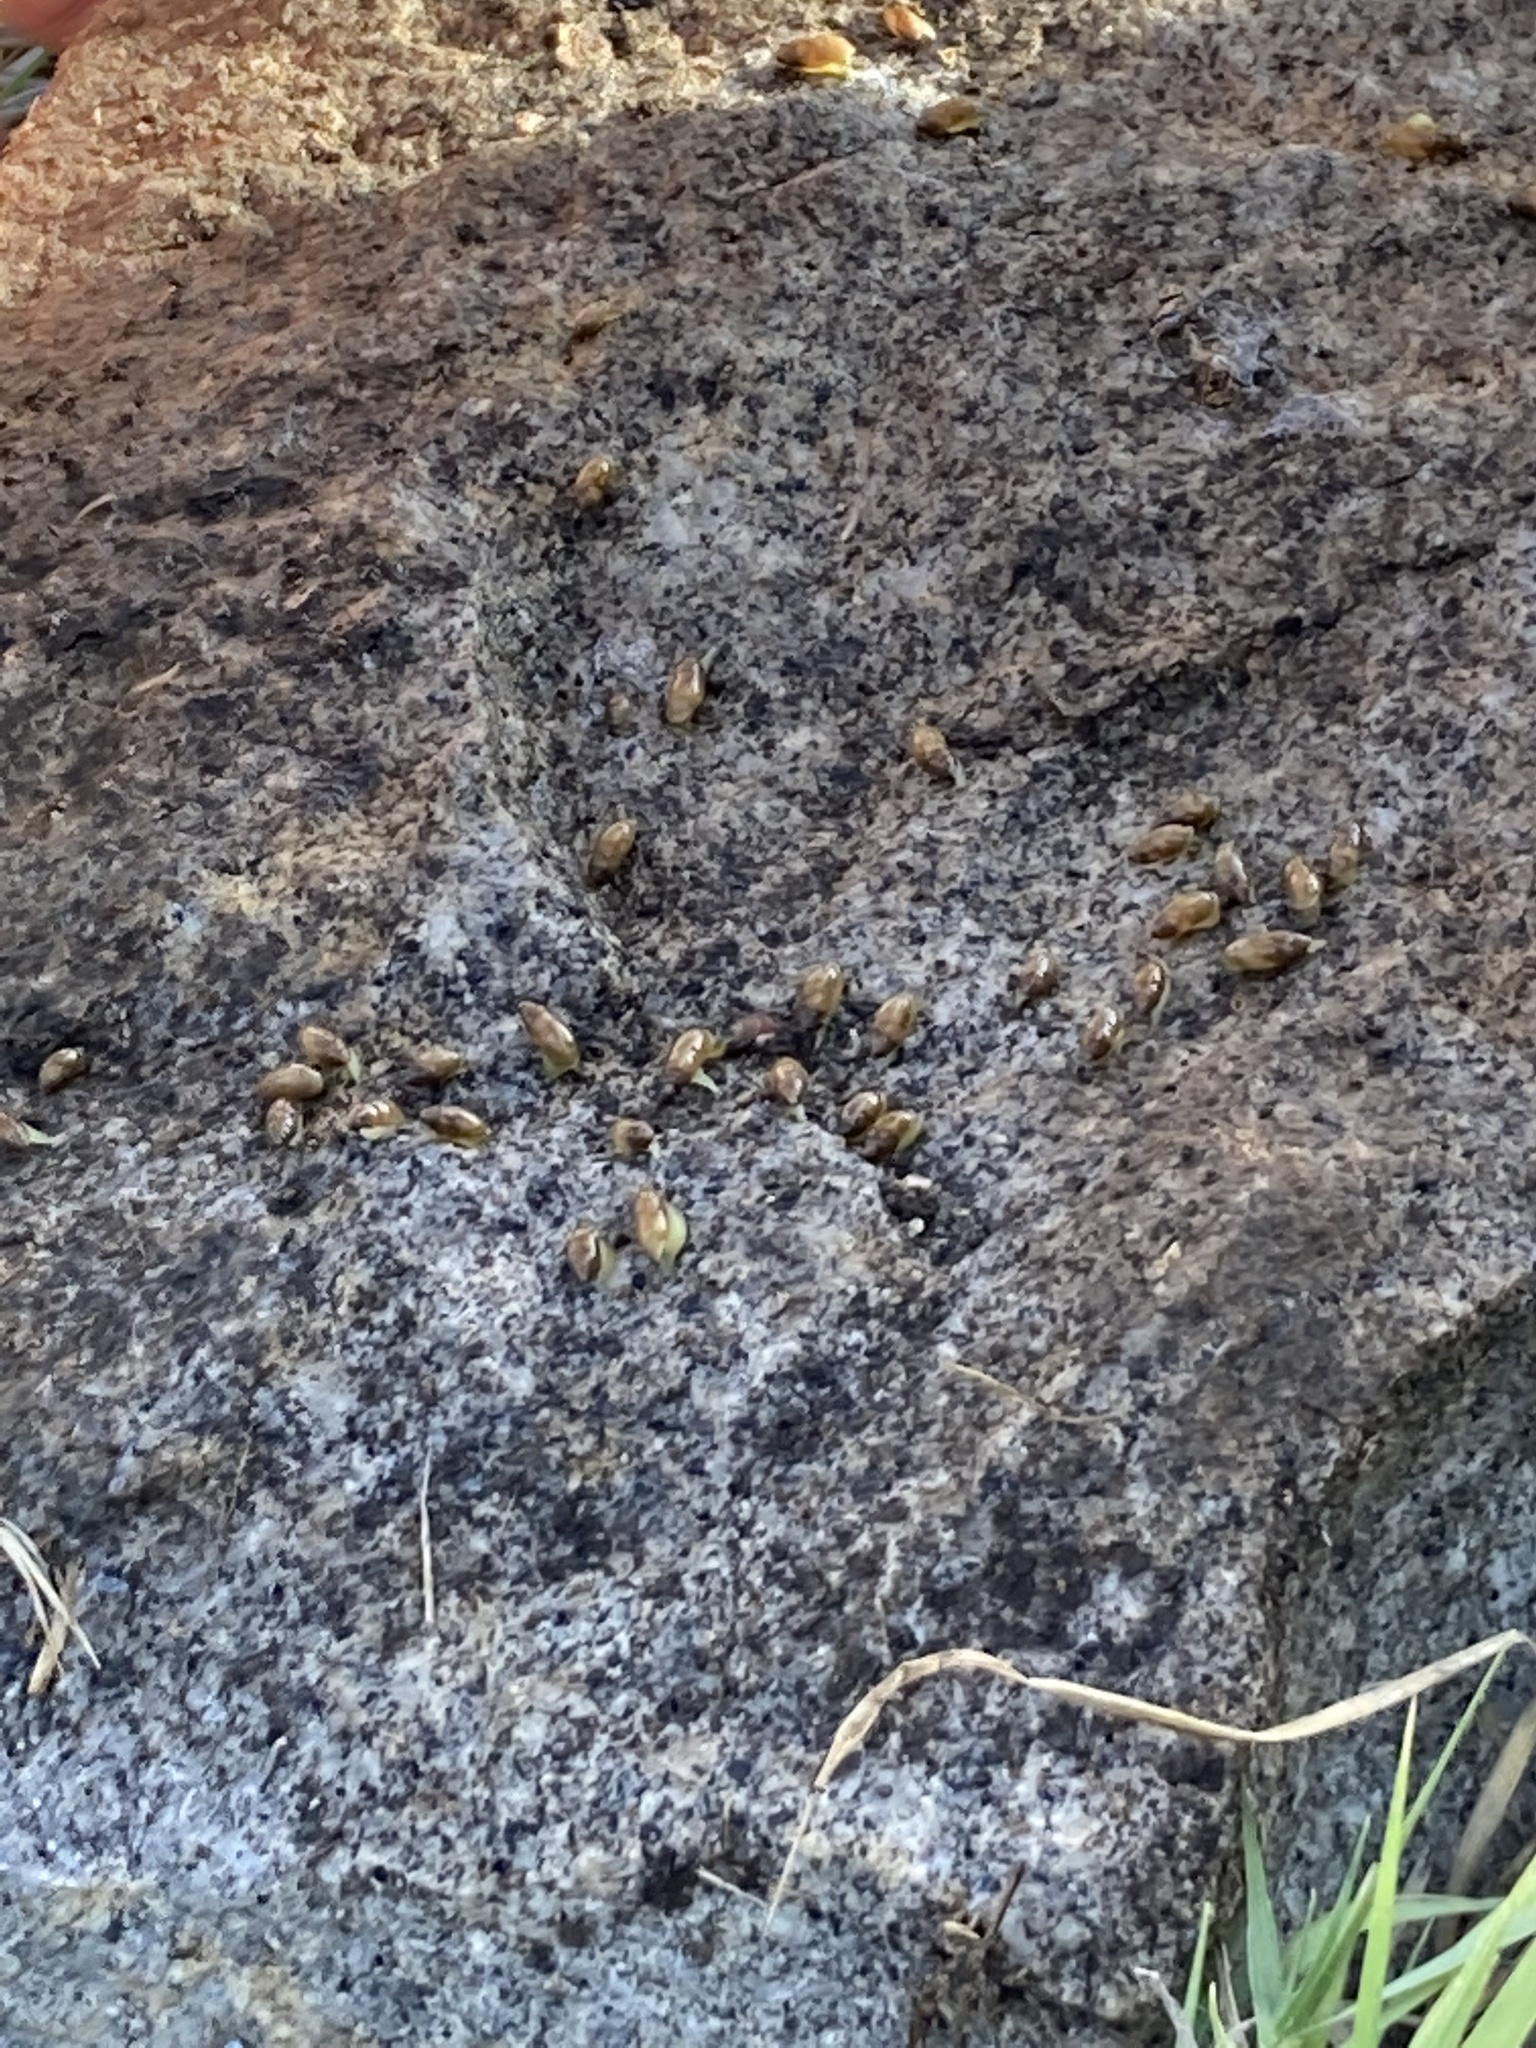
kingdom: Animalia
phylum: Mollusca
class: Gastropoda
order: Stylommatophora
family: Ferussaciidae
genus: Ferussacia
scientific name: Ferussacia folliculum
